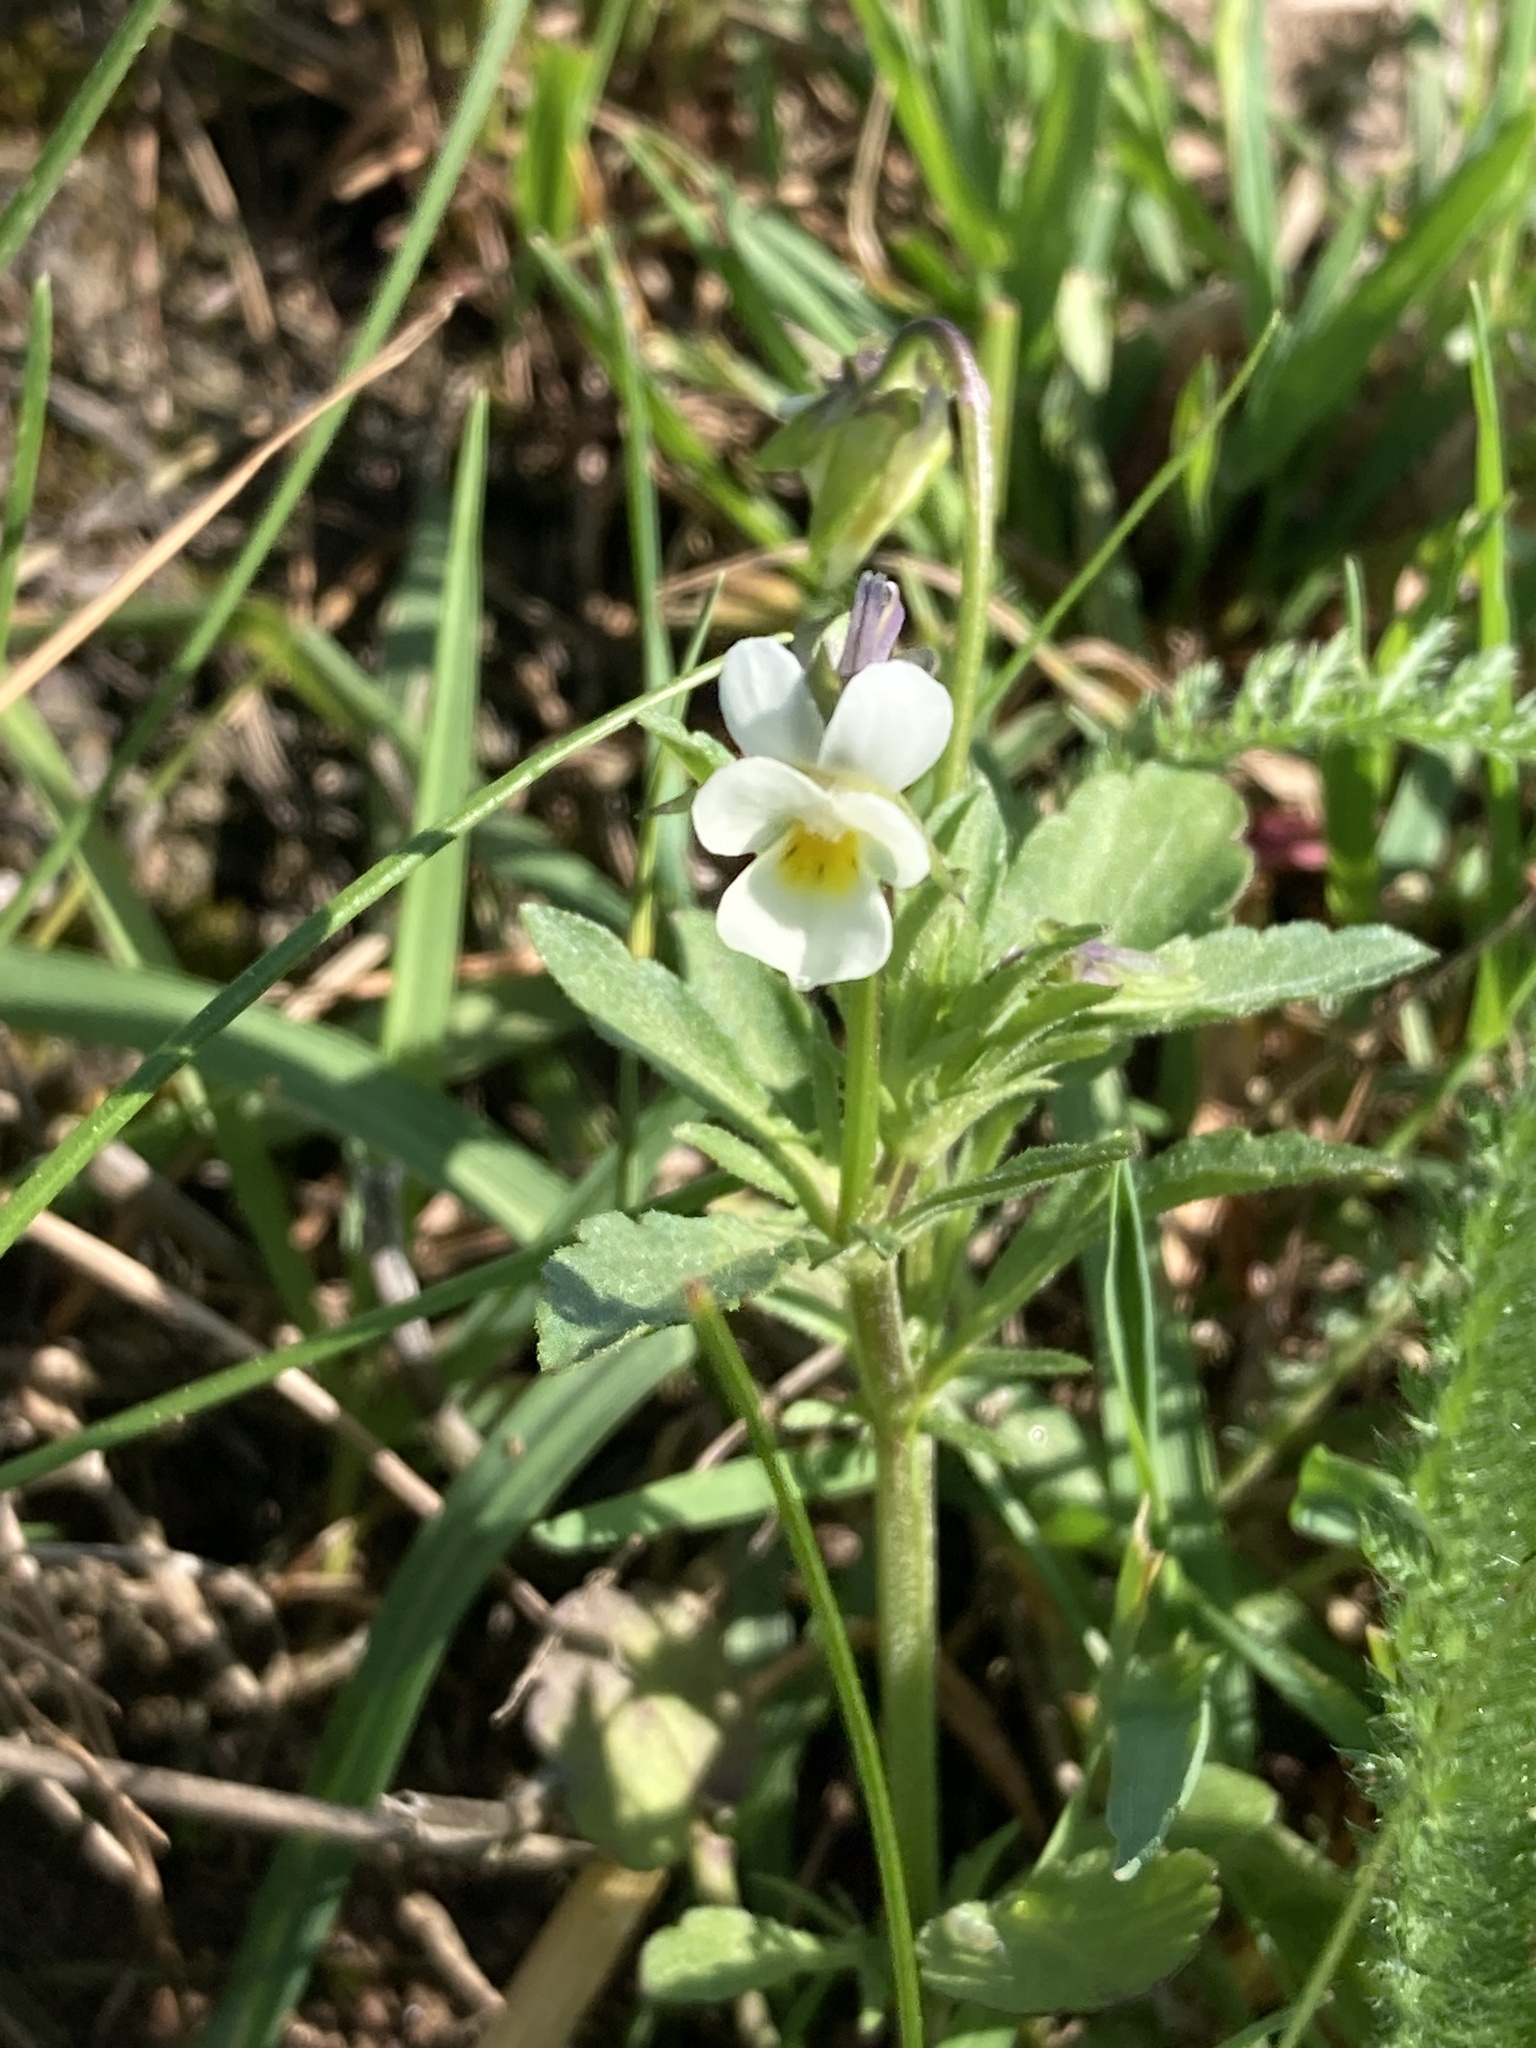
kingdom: Plantae
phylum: Tracheophyta
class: Magnoliopsida
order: Malpighiales
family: Violaceae
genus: Viola
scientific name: Viola arvensis
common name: Field pansy
